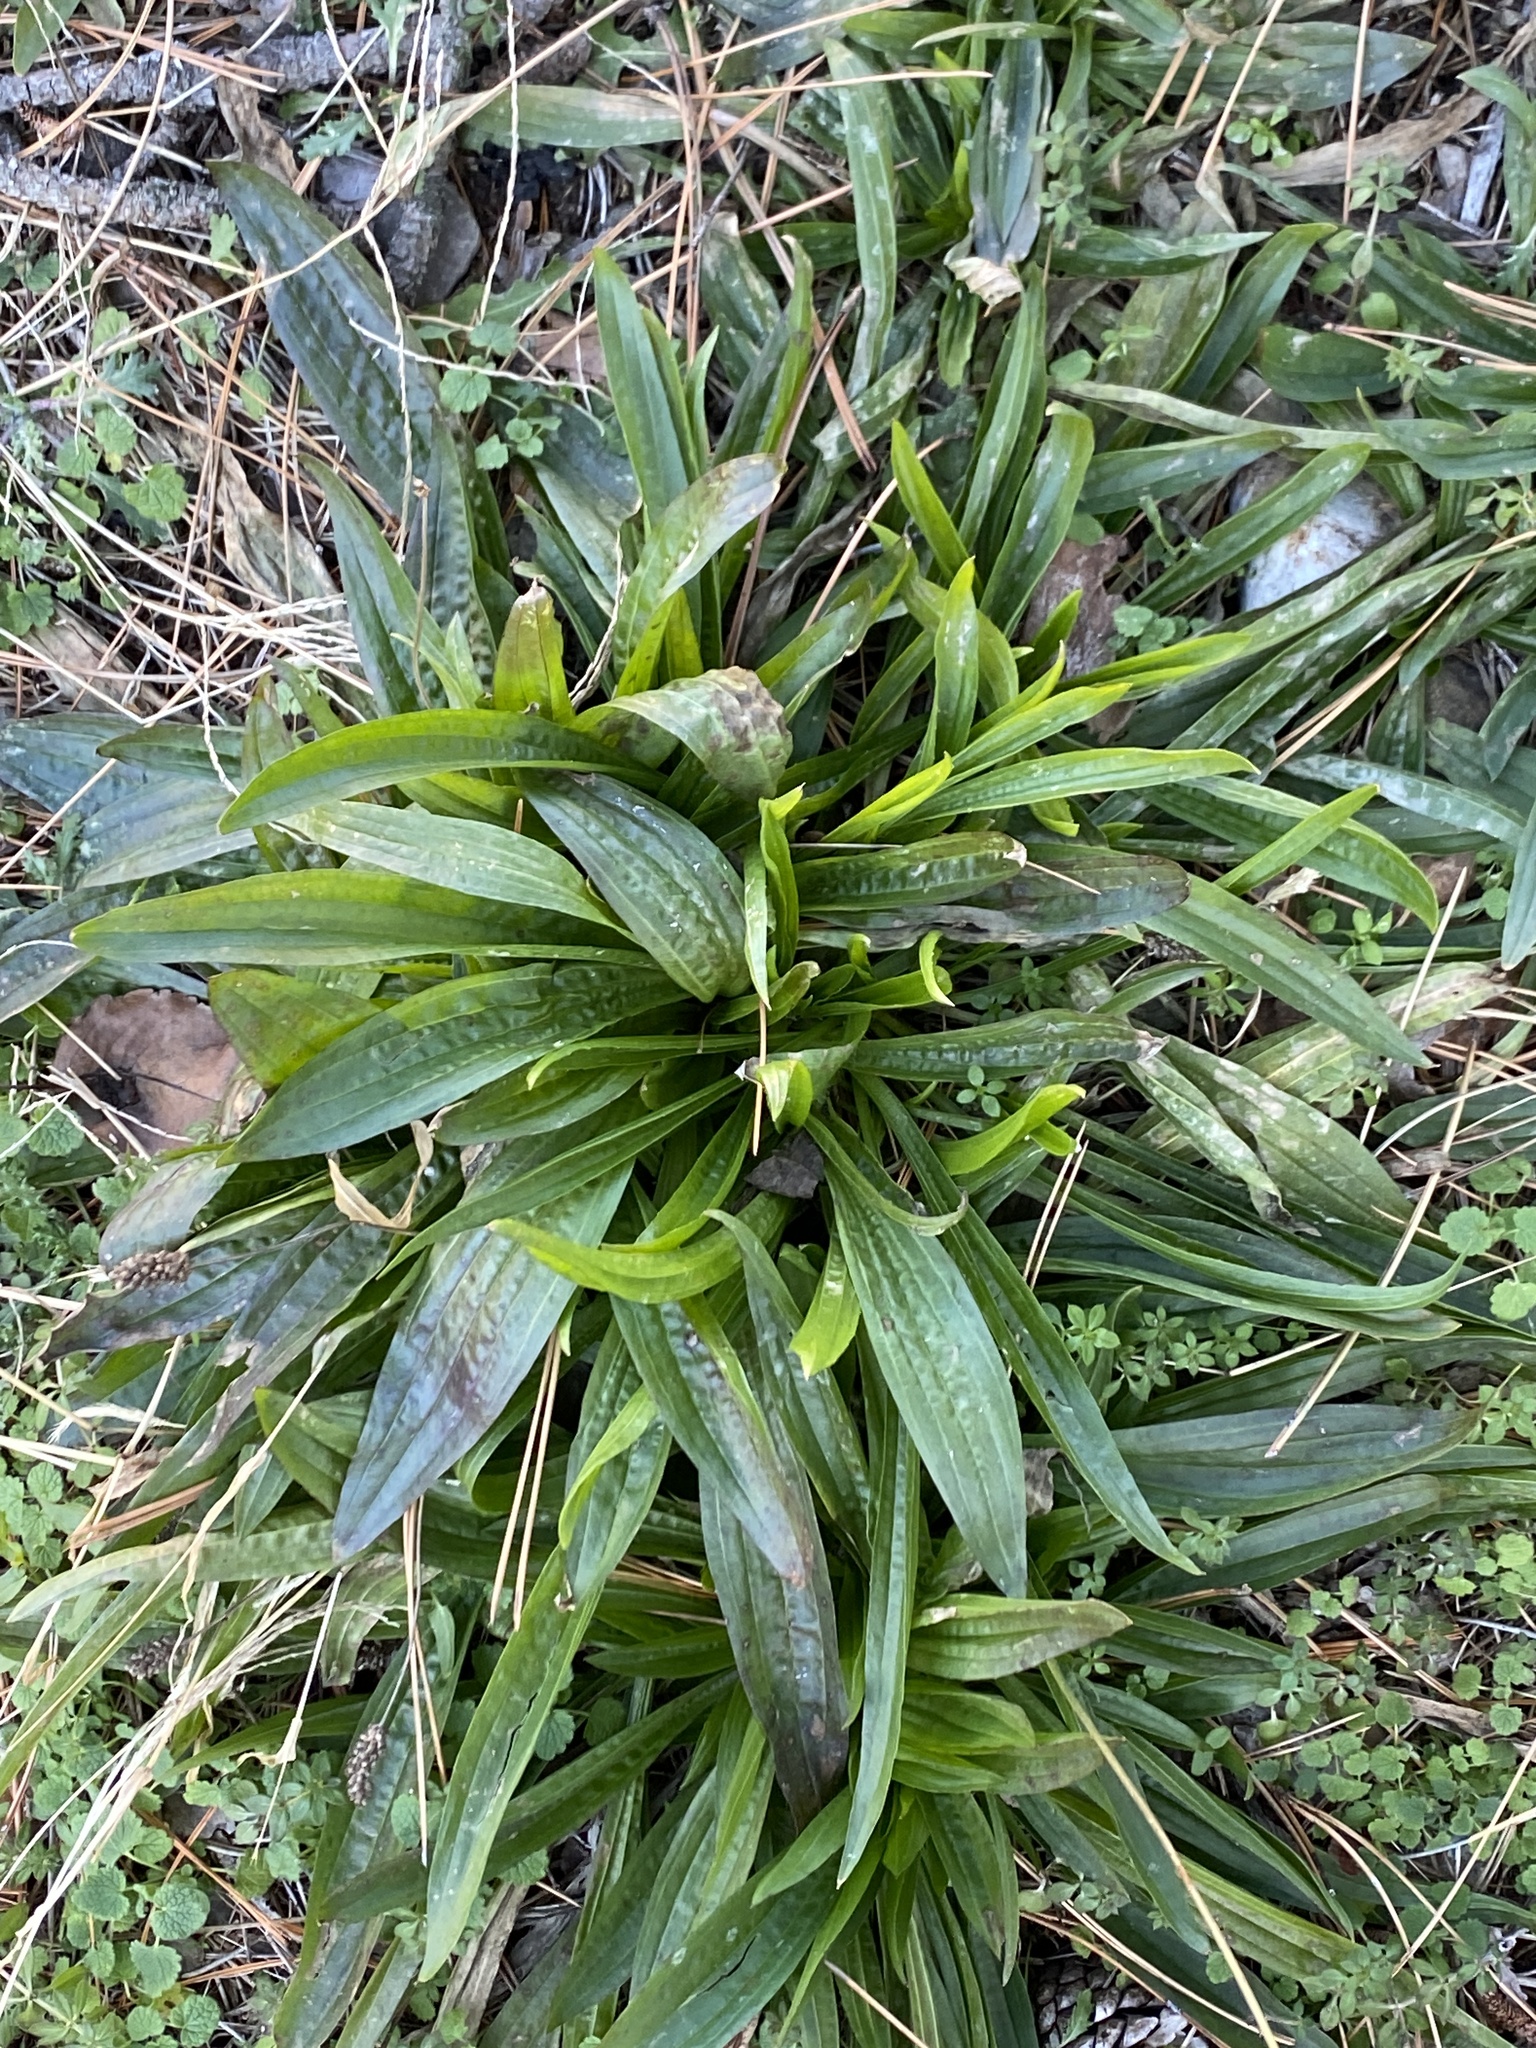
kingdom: Plantae
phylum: Tracheophyta
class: Magnoliopsida
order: Lamiales
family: Plantaginaceae
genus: Plantago
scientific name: Plantago lanceolata
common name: Ribwort plantain
